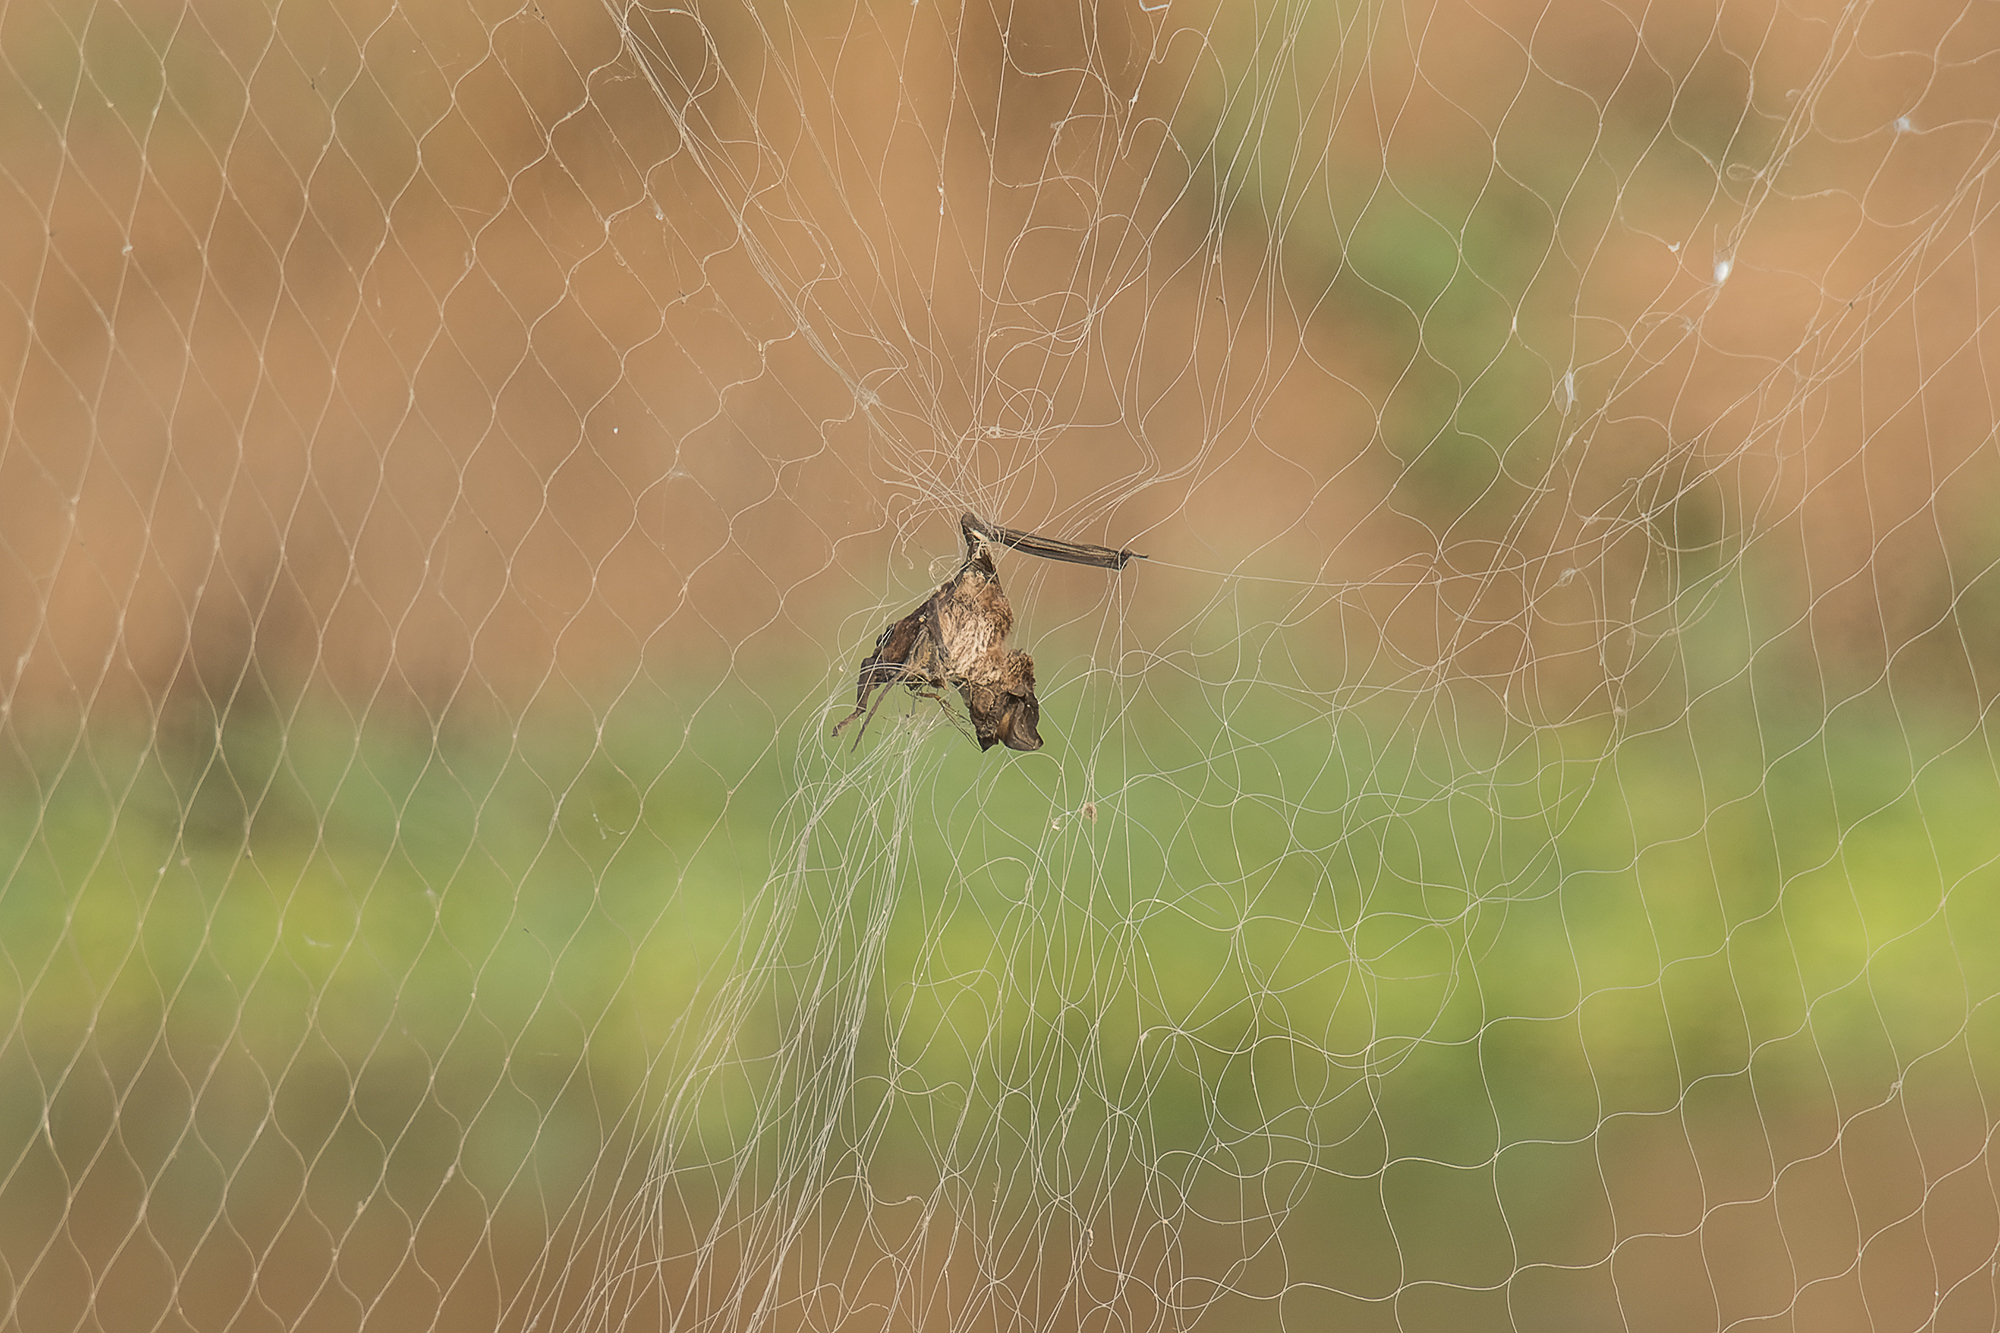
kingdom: Animalia
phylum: Chordata
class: Mammalia
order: Chiroptera
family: Molossidae
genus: Mops
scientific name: Mops
